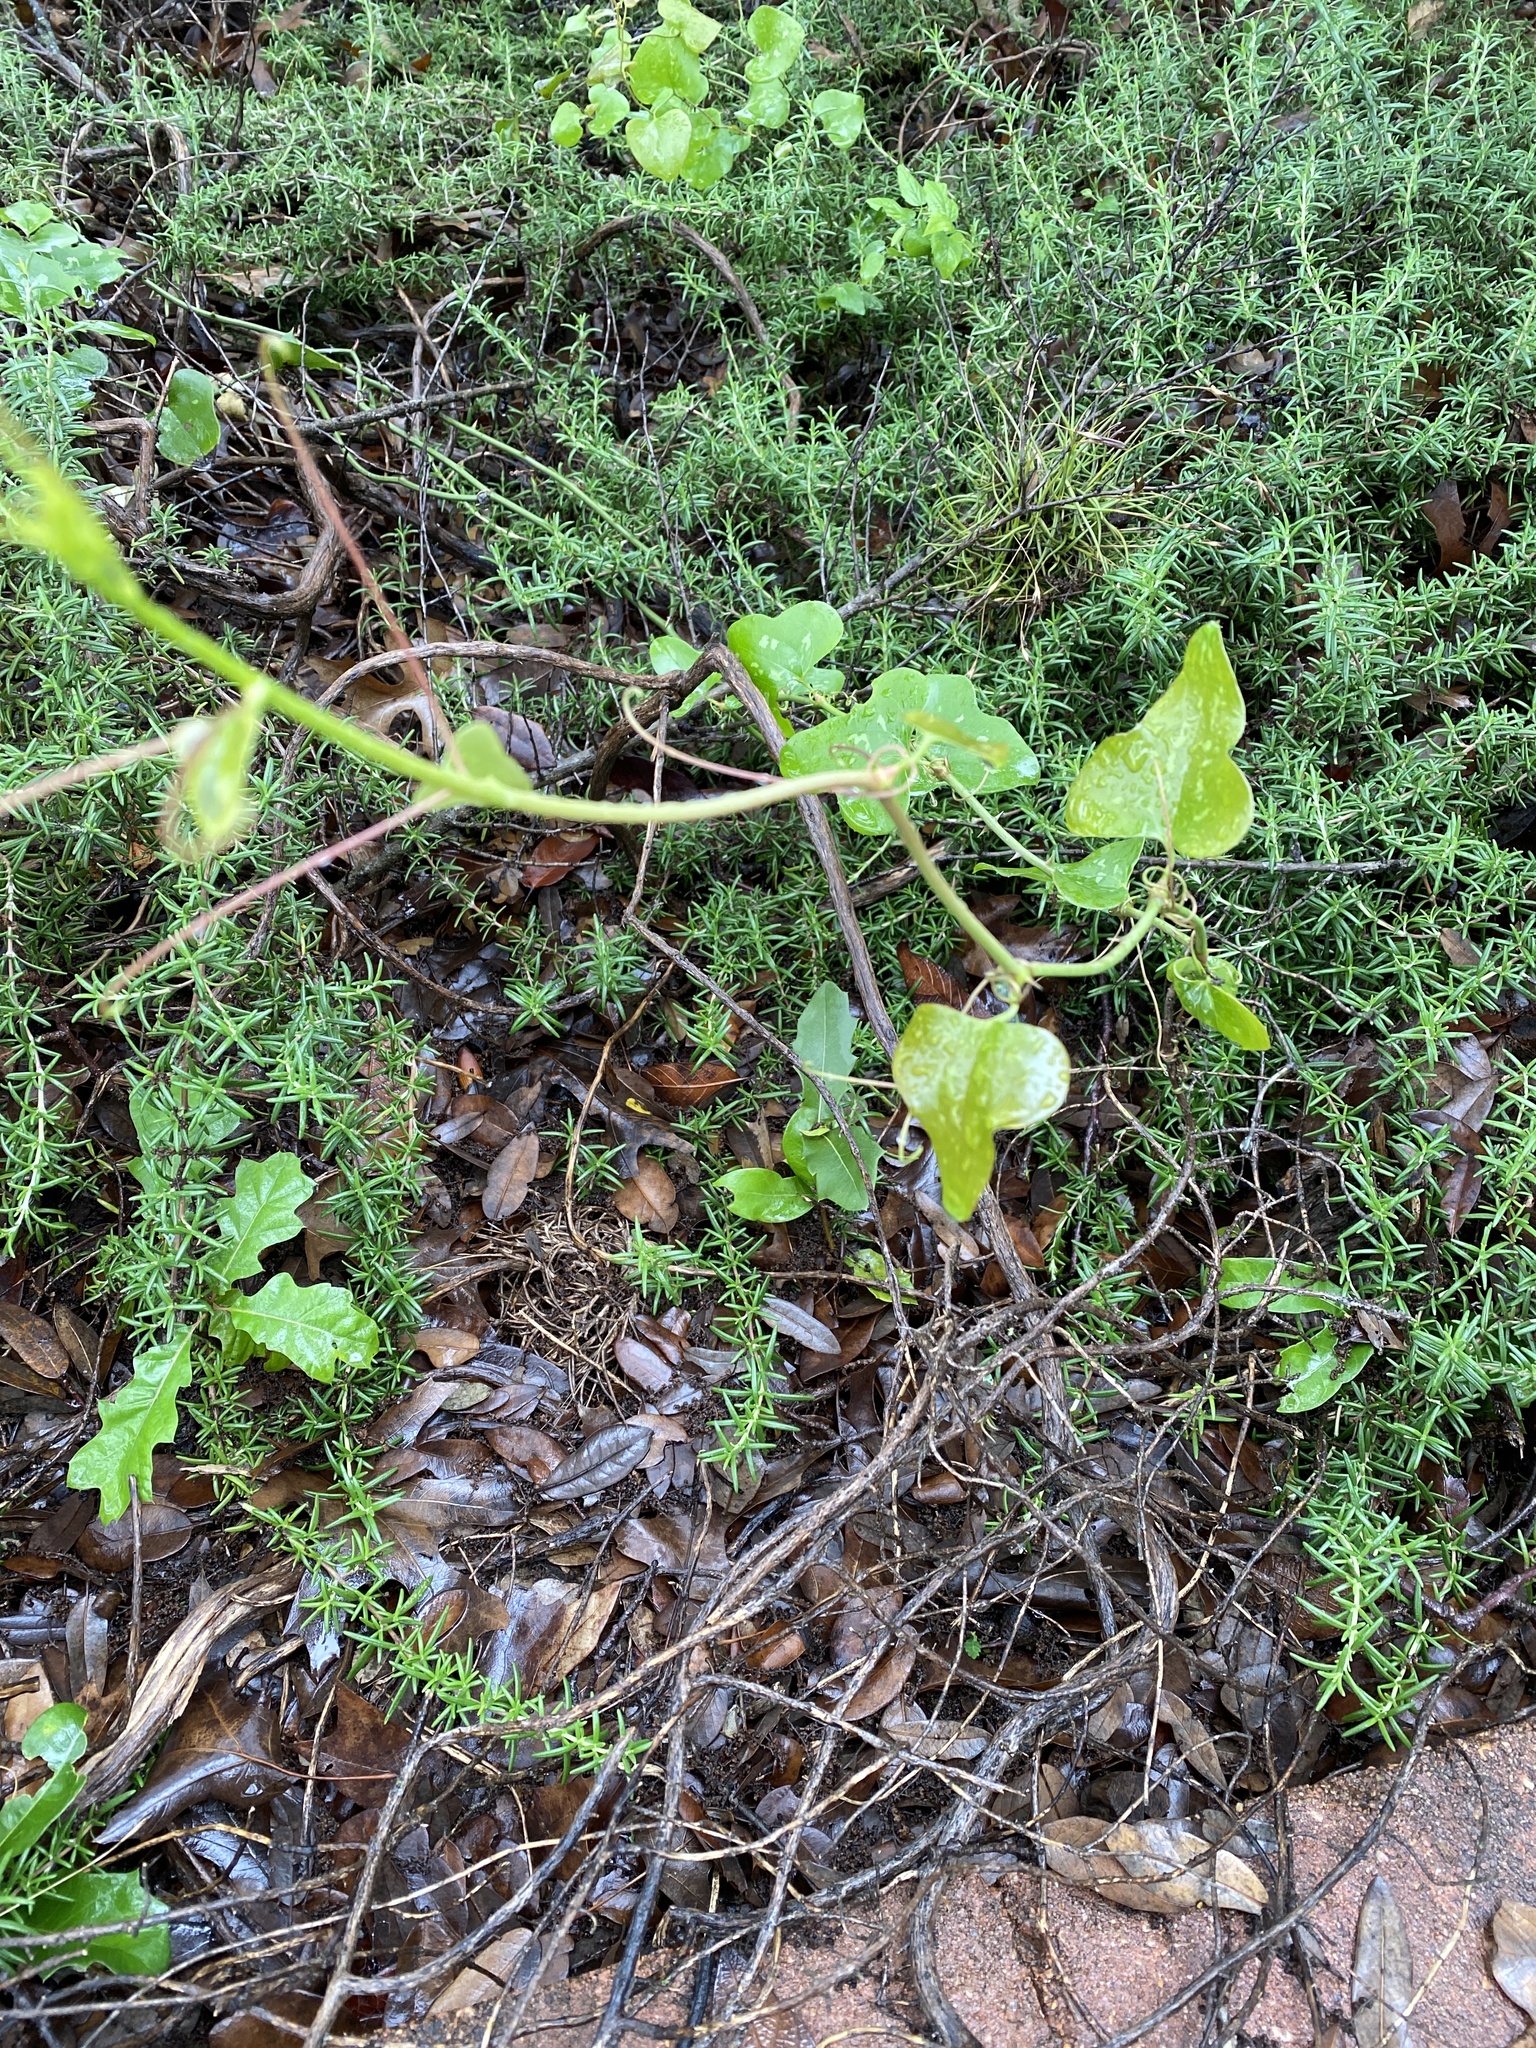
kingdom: Plantae
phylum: Tracheophyta
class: Liliopsida
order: Liliales
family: Smilacaceae
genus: Smilax
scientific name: Smilax bona-nox
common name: Catbrier
